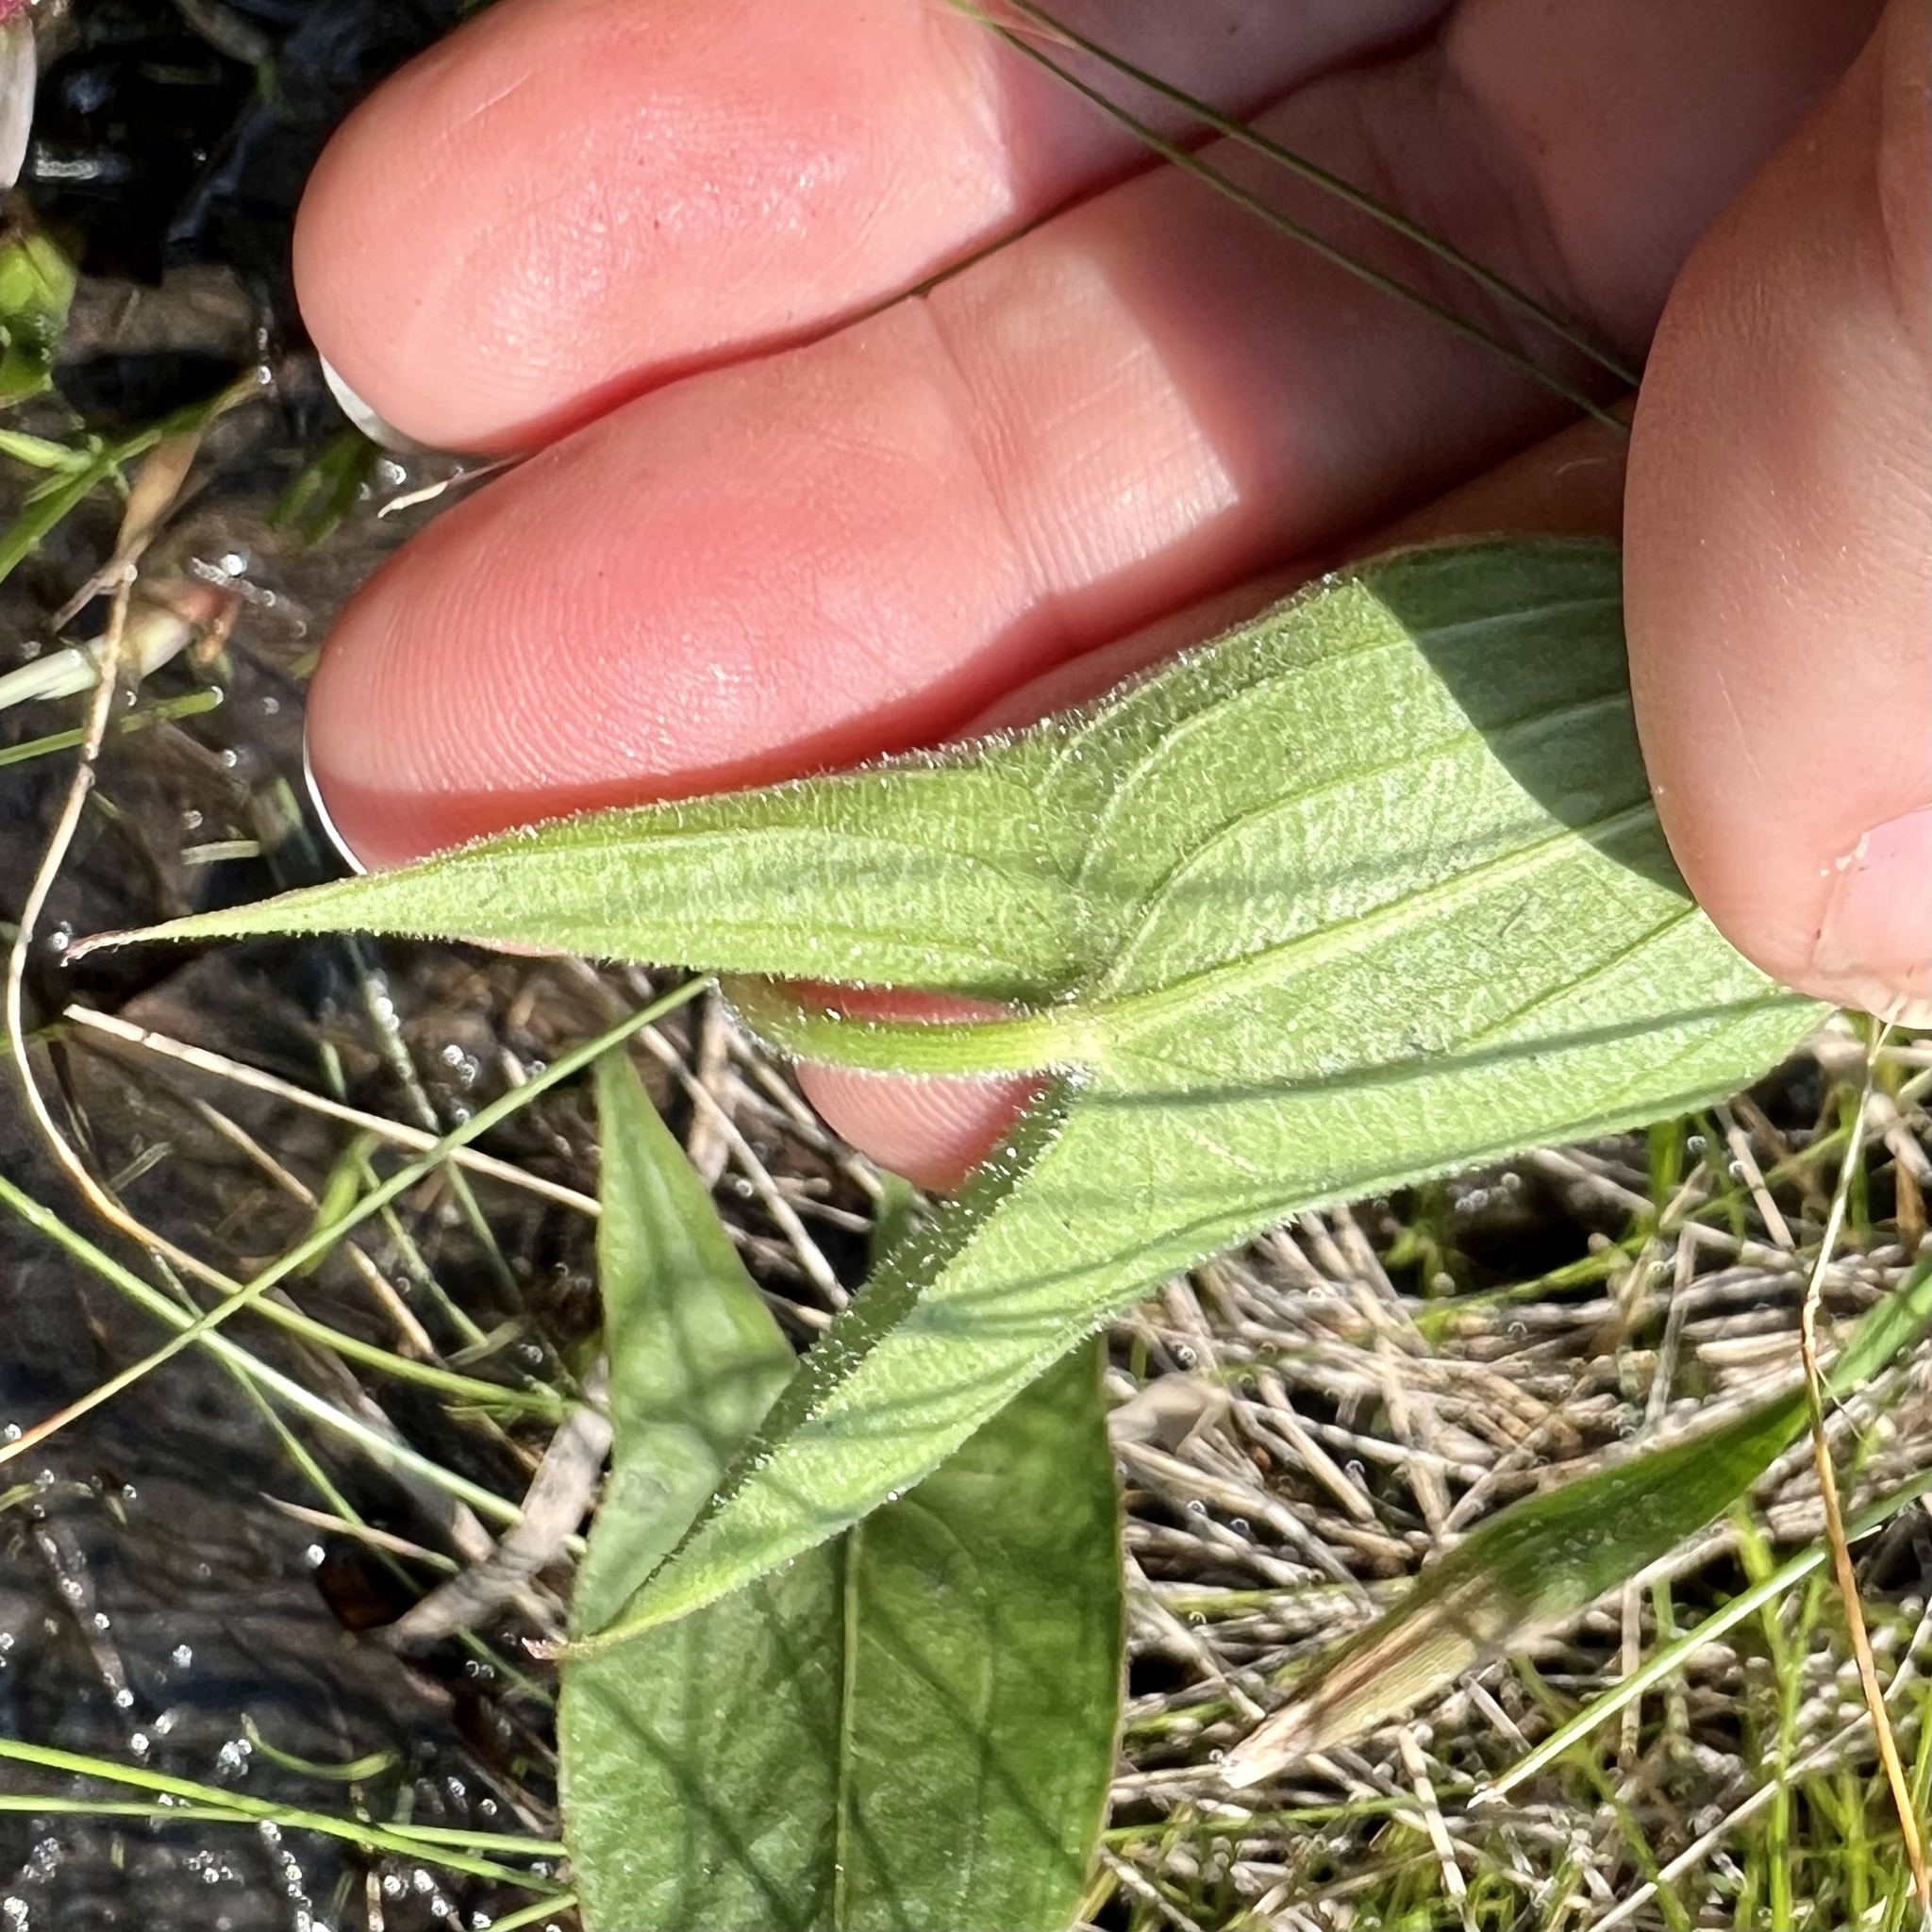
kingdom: Plantae
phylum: Tracheophyta
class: Liliopsida
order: Alismatales
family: Alismataceae
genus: Sagittaria
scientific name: Sagittaria latifolia
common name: Duck-potato
